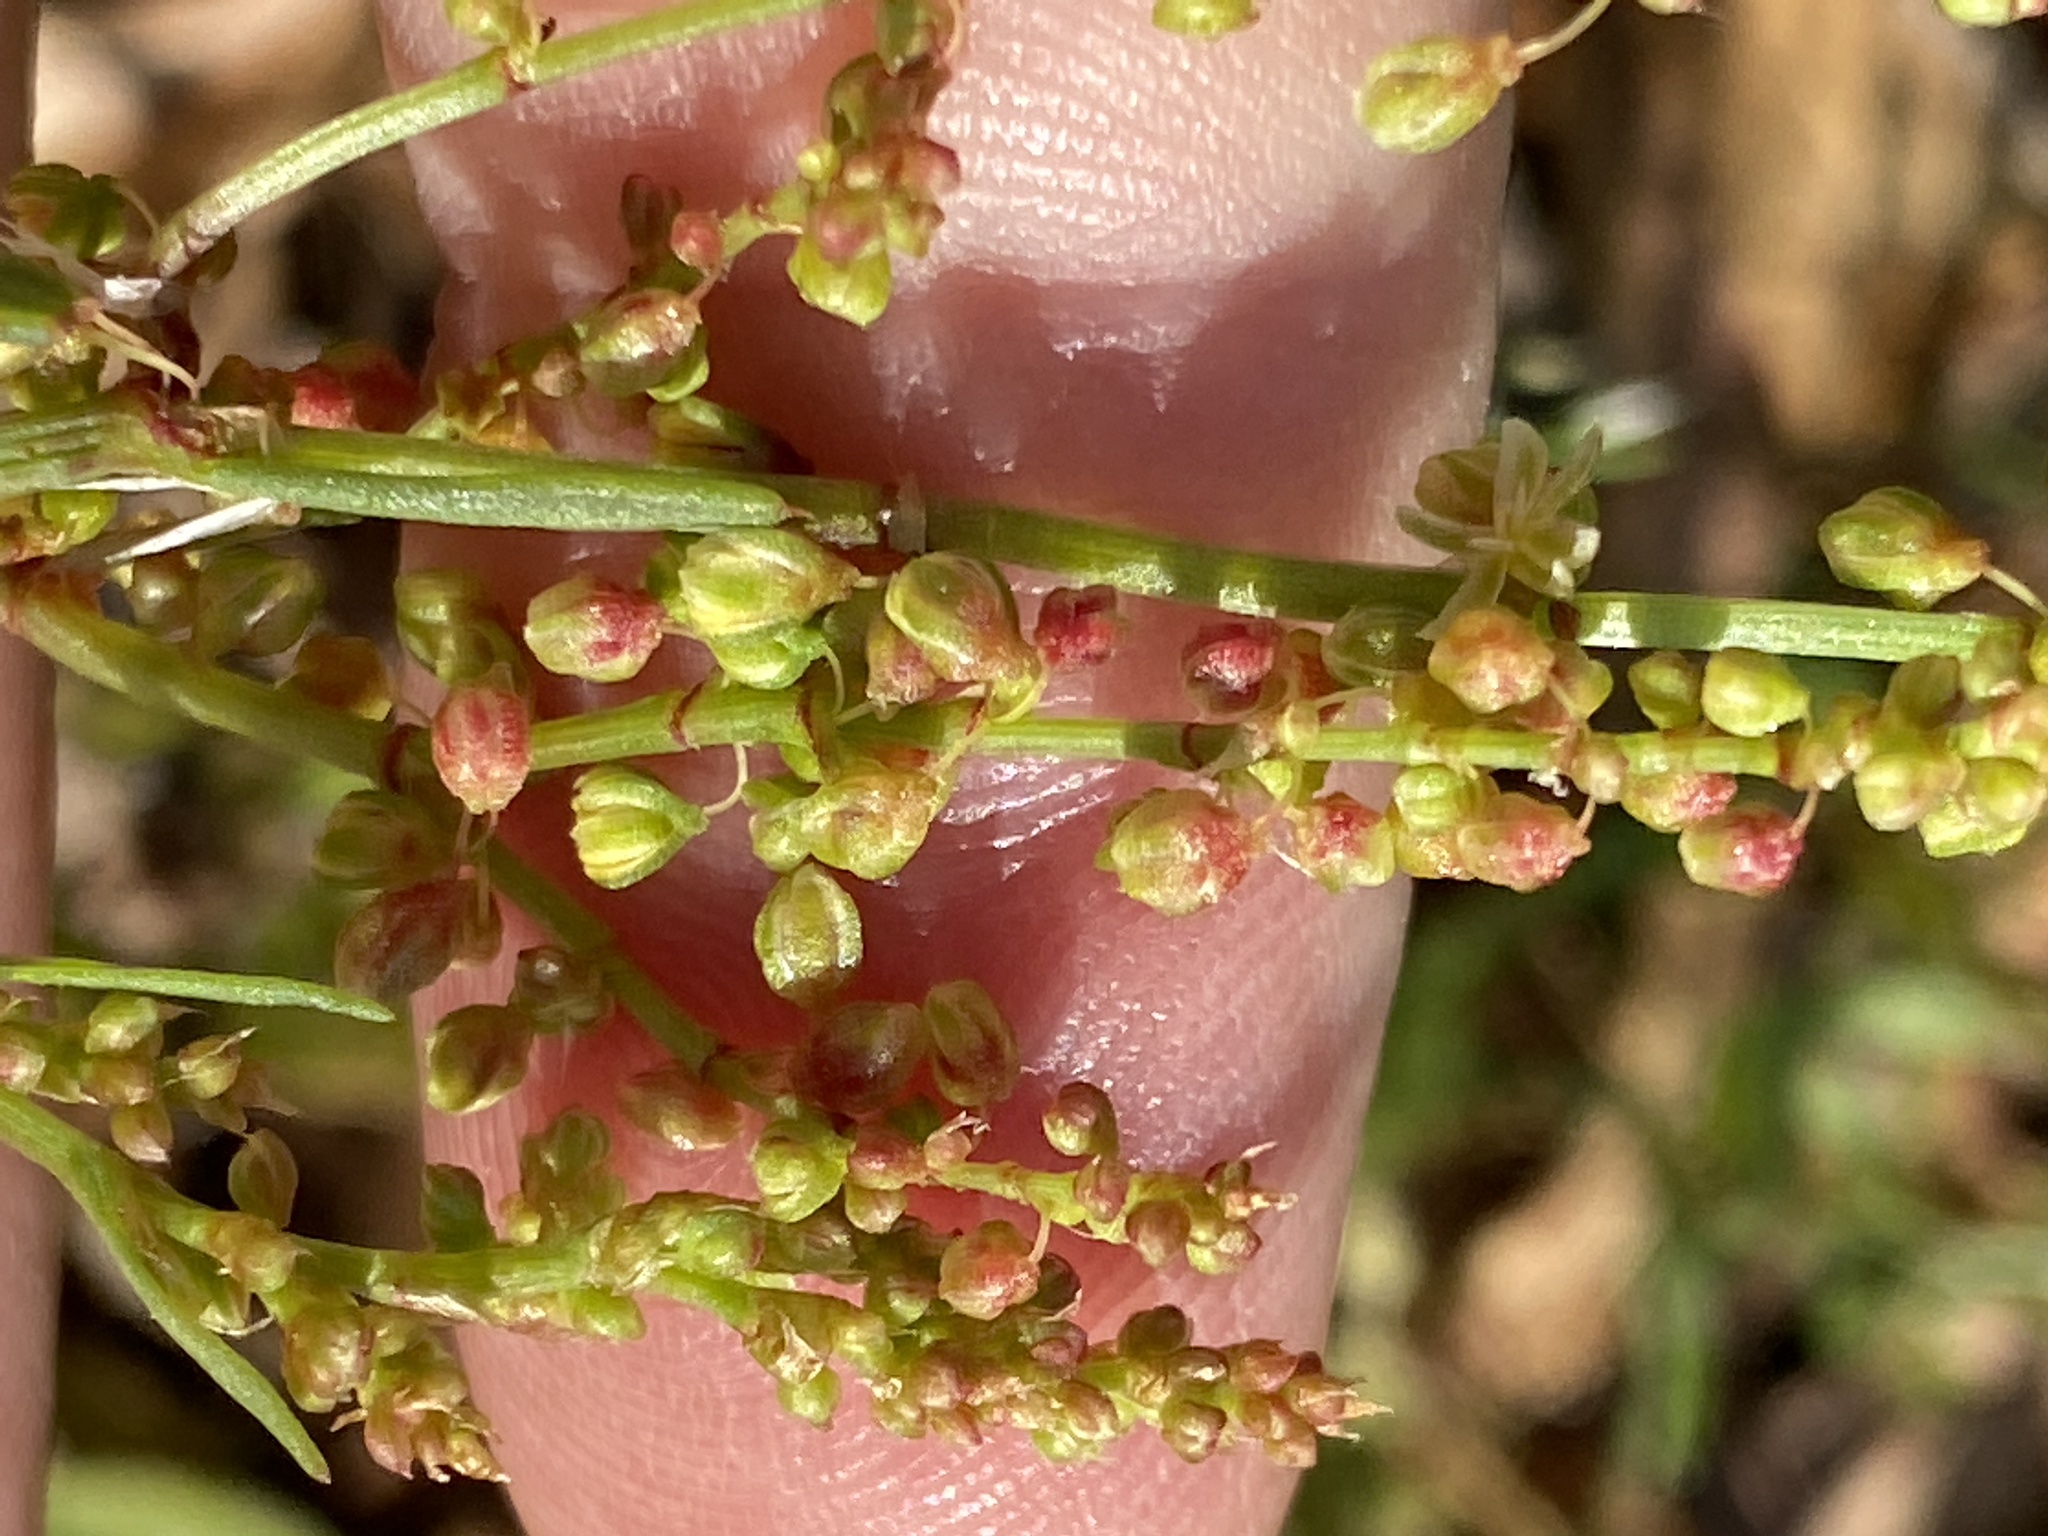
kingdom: Plantae
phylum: Tracheophyta
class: Magnoliopsida
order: Caryophyllales
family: Polygonaceae
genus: Rumex
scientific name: Rumex acetosella
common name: Common sheep sorrel
